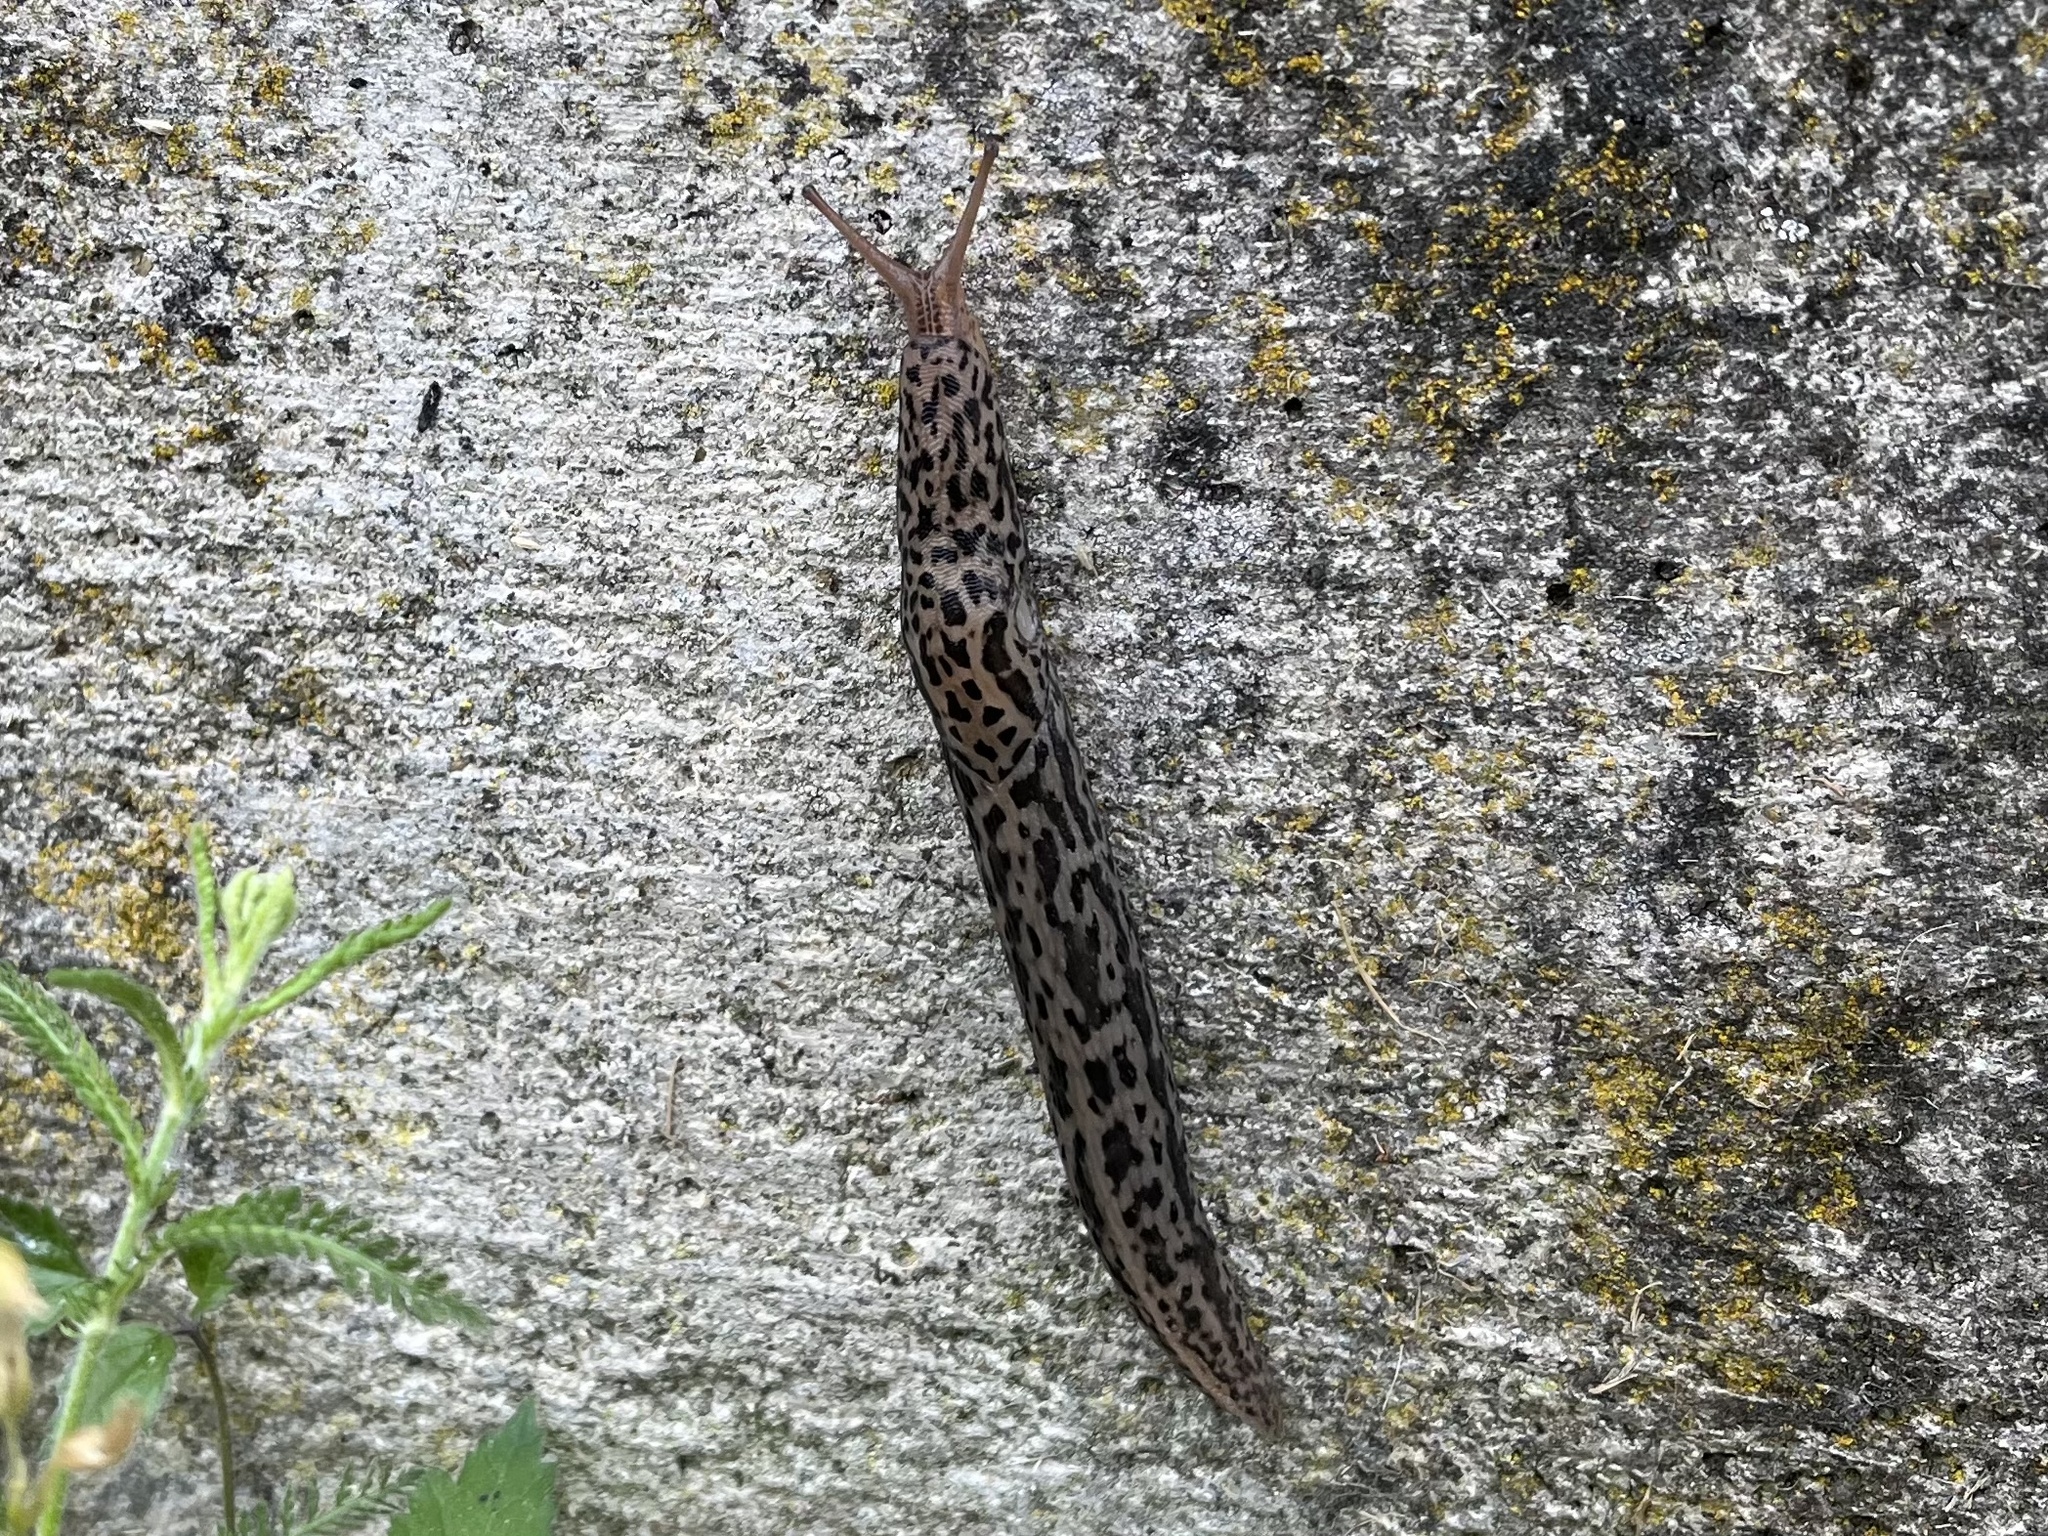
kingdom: Animalia
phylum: Mollusca
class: Gastropoda
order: Stylommatophora
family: Limacidae
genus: Limax
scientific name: Limax maximus
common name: Great grey slug
